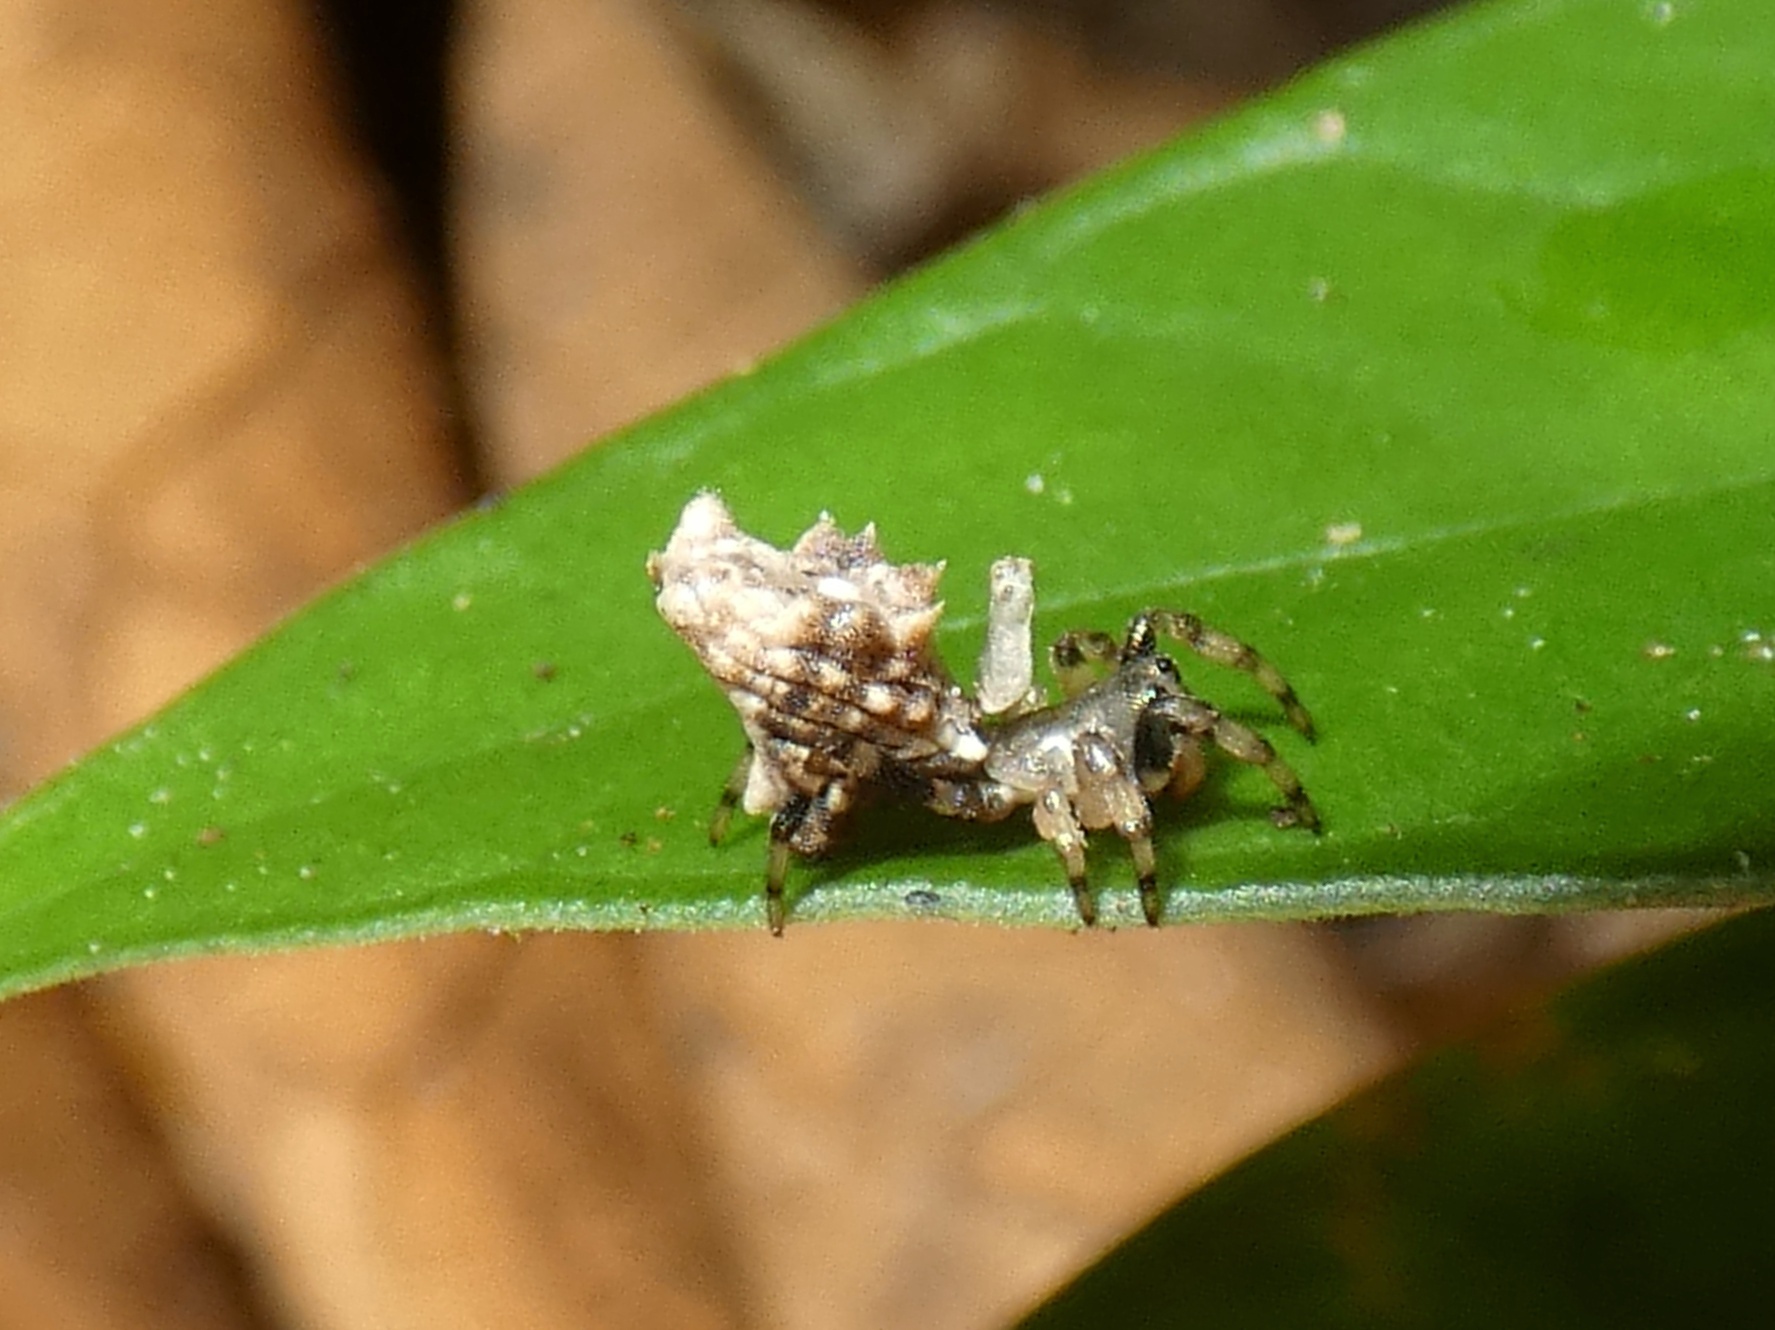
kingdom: Animalia
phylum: Arthropoda
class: Arachnida
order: Araneae
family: Araneidae
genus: Micrathena
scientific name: Micrathena horrida
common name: Orb weavers
